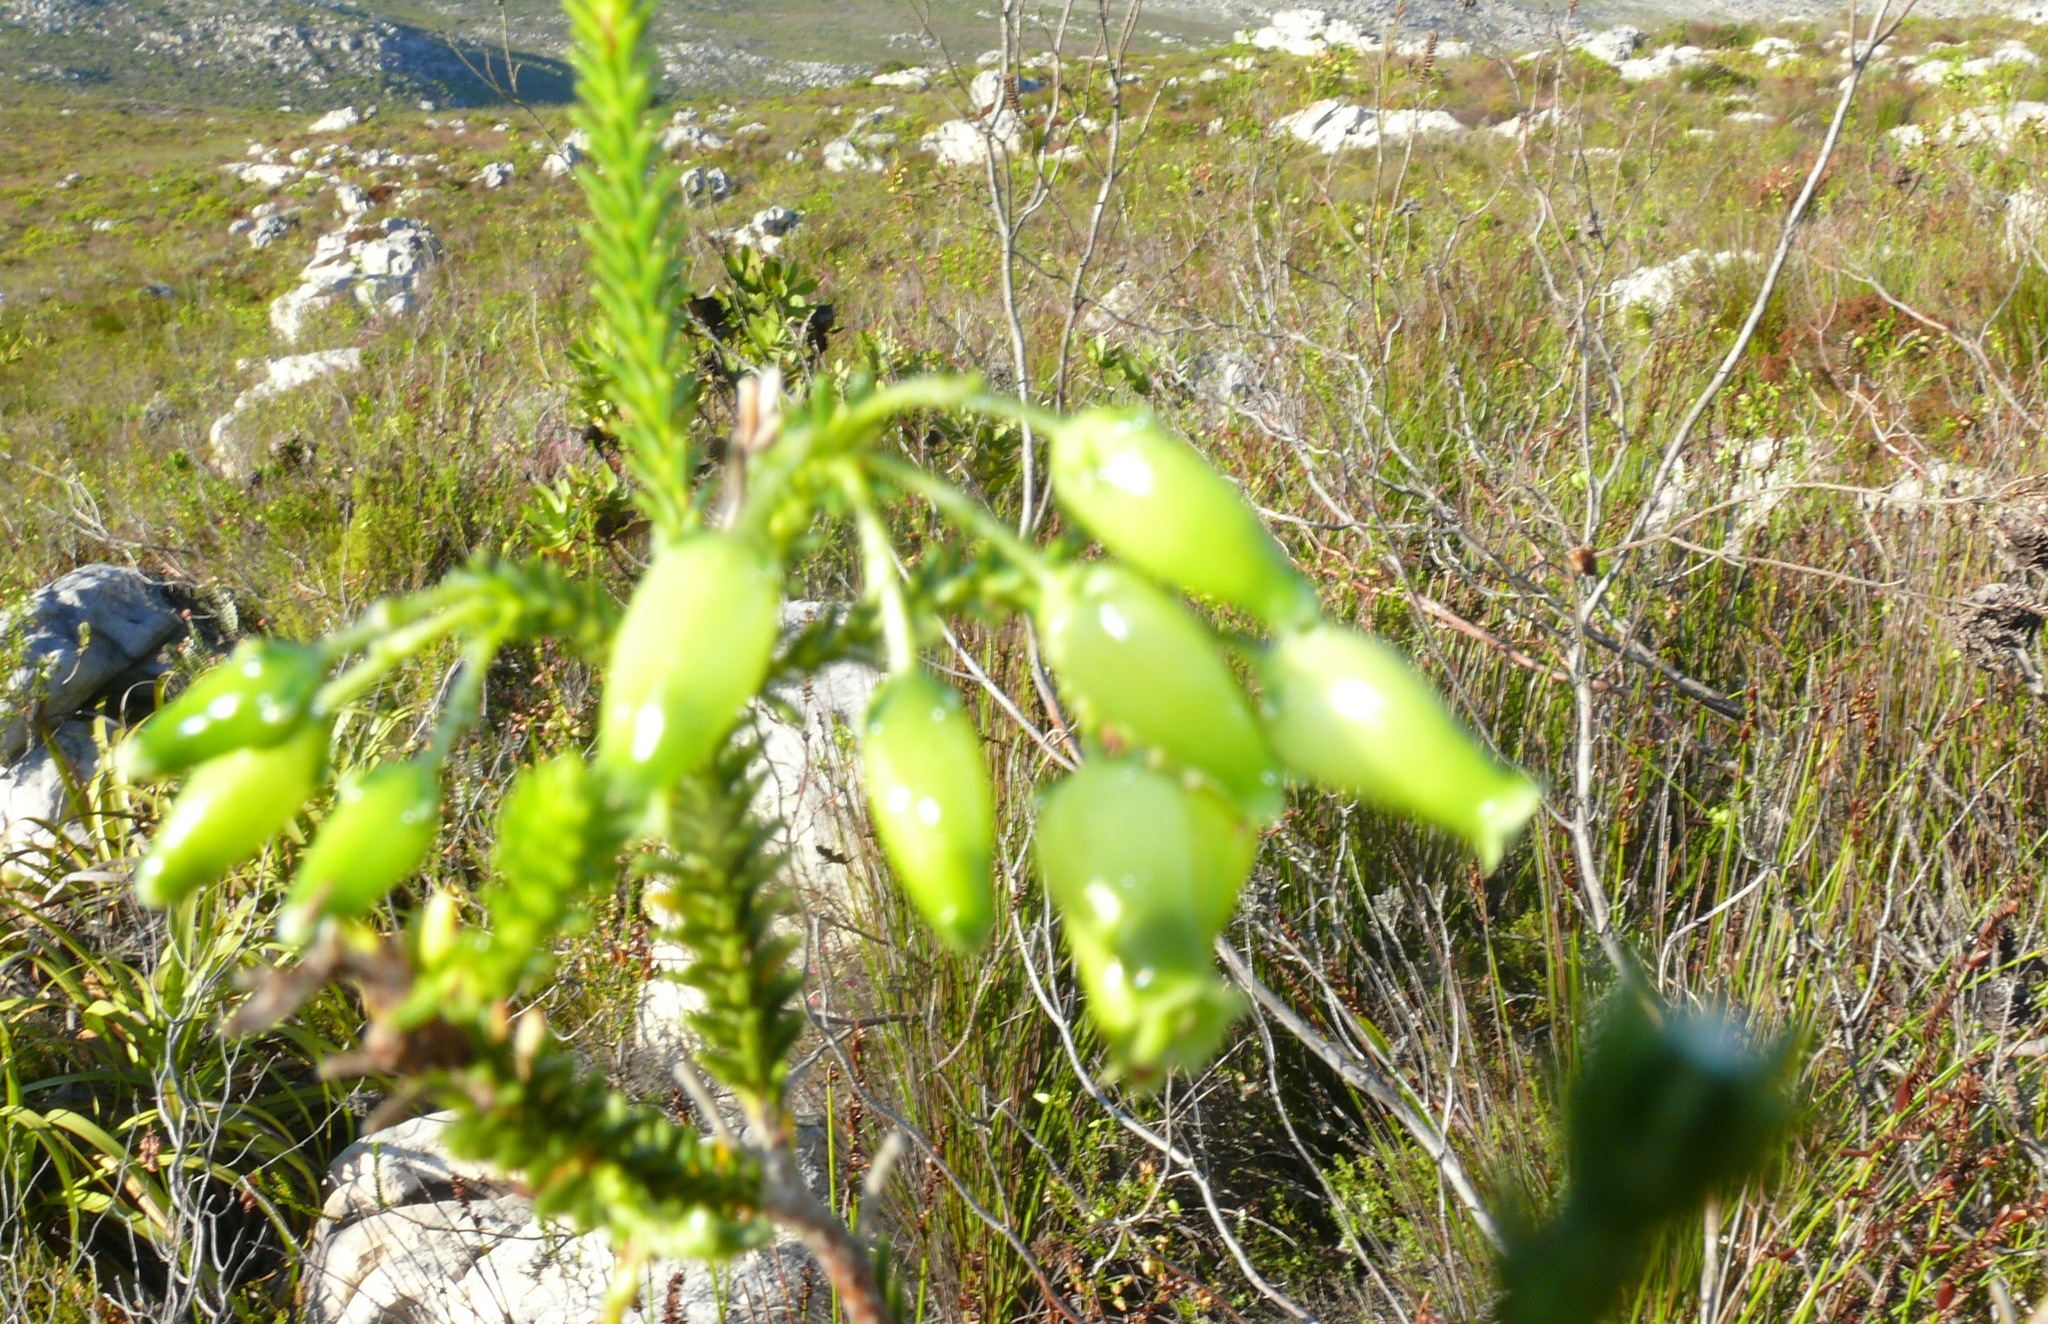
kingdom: Plantae
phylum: Tracheophyta
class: Magnoliopsida
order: Ericales
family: Ericaceae
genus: Erica
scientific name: Erica urna-viridis
